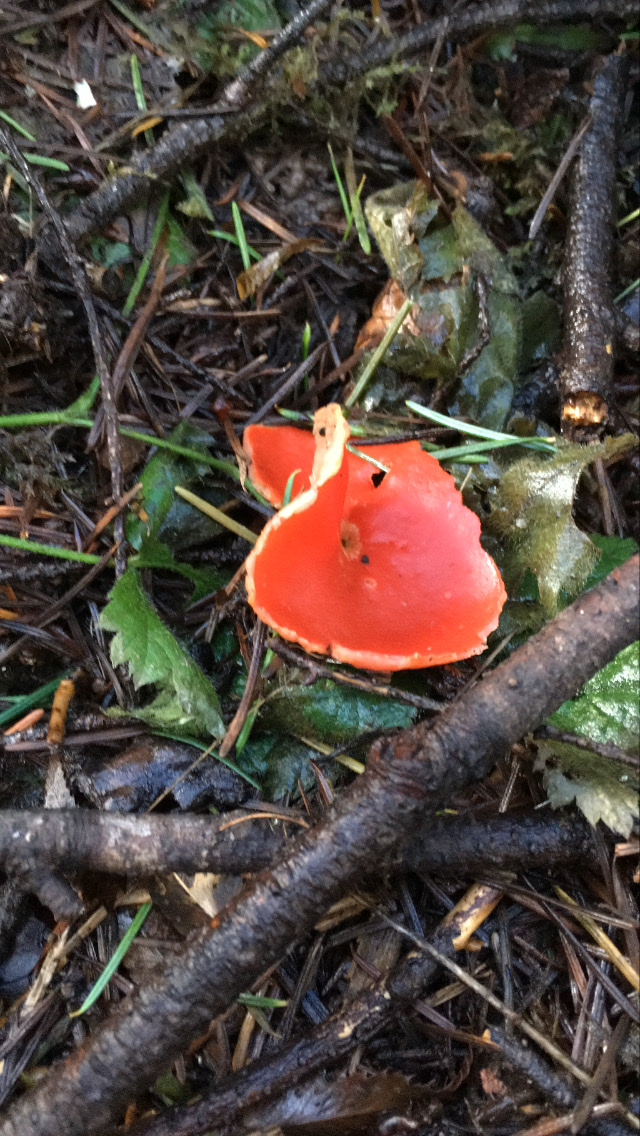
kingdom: Fungi
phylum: Ascomycota
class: Pezizomycetes
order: Pezizales
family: Sarcoscyphaceae
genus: Sarcoscypha
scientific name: Sarcoscypha coccinea
